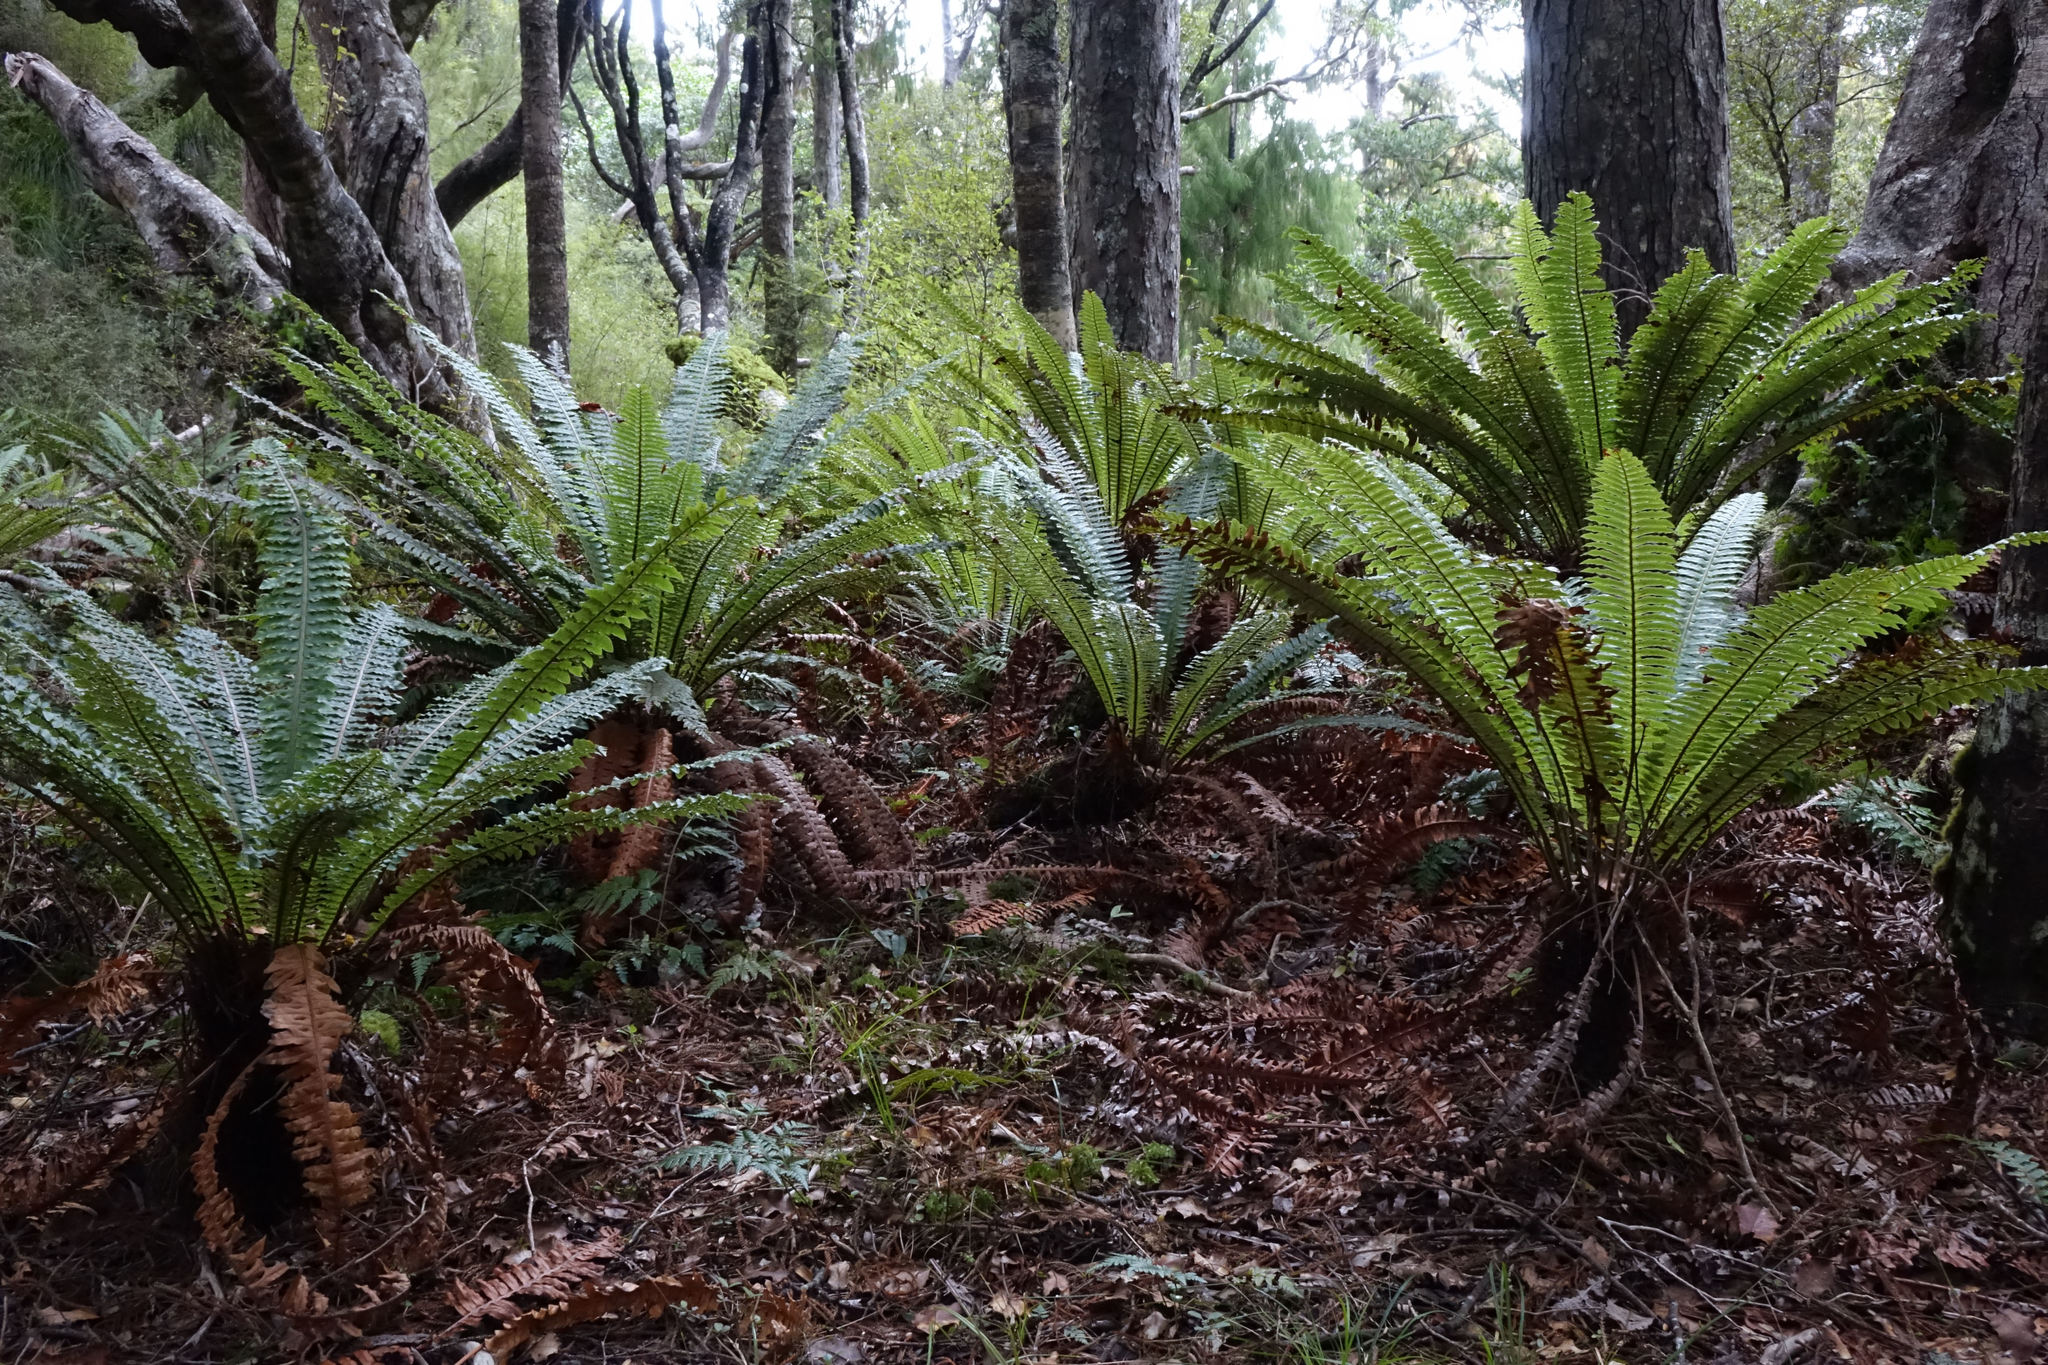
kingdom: Plantae
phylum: Tracheophyta
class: Polypodiopsida
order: Polypodiales
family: Blechnaceae
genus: Lomaria
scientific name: Lomaria discolor
